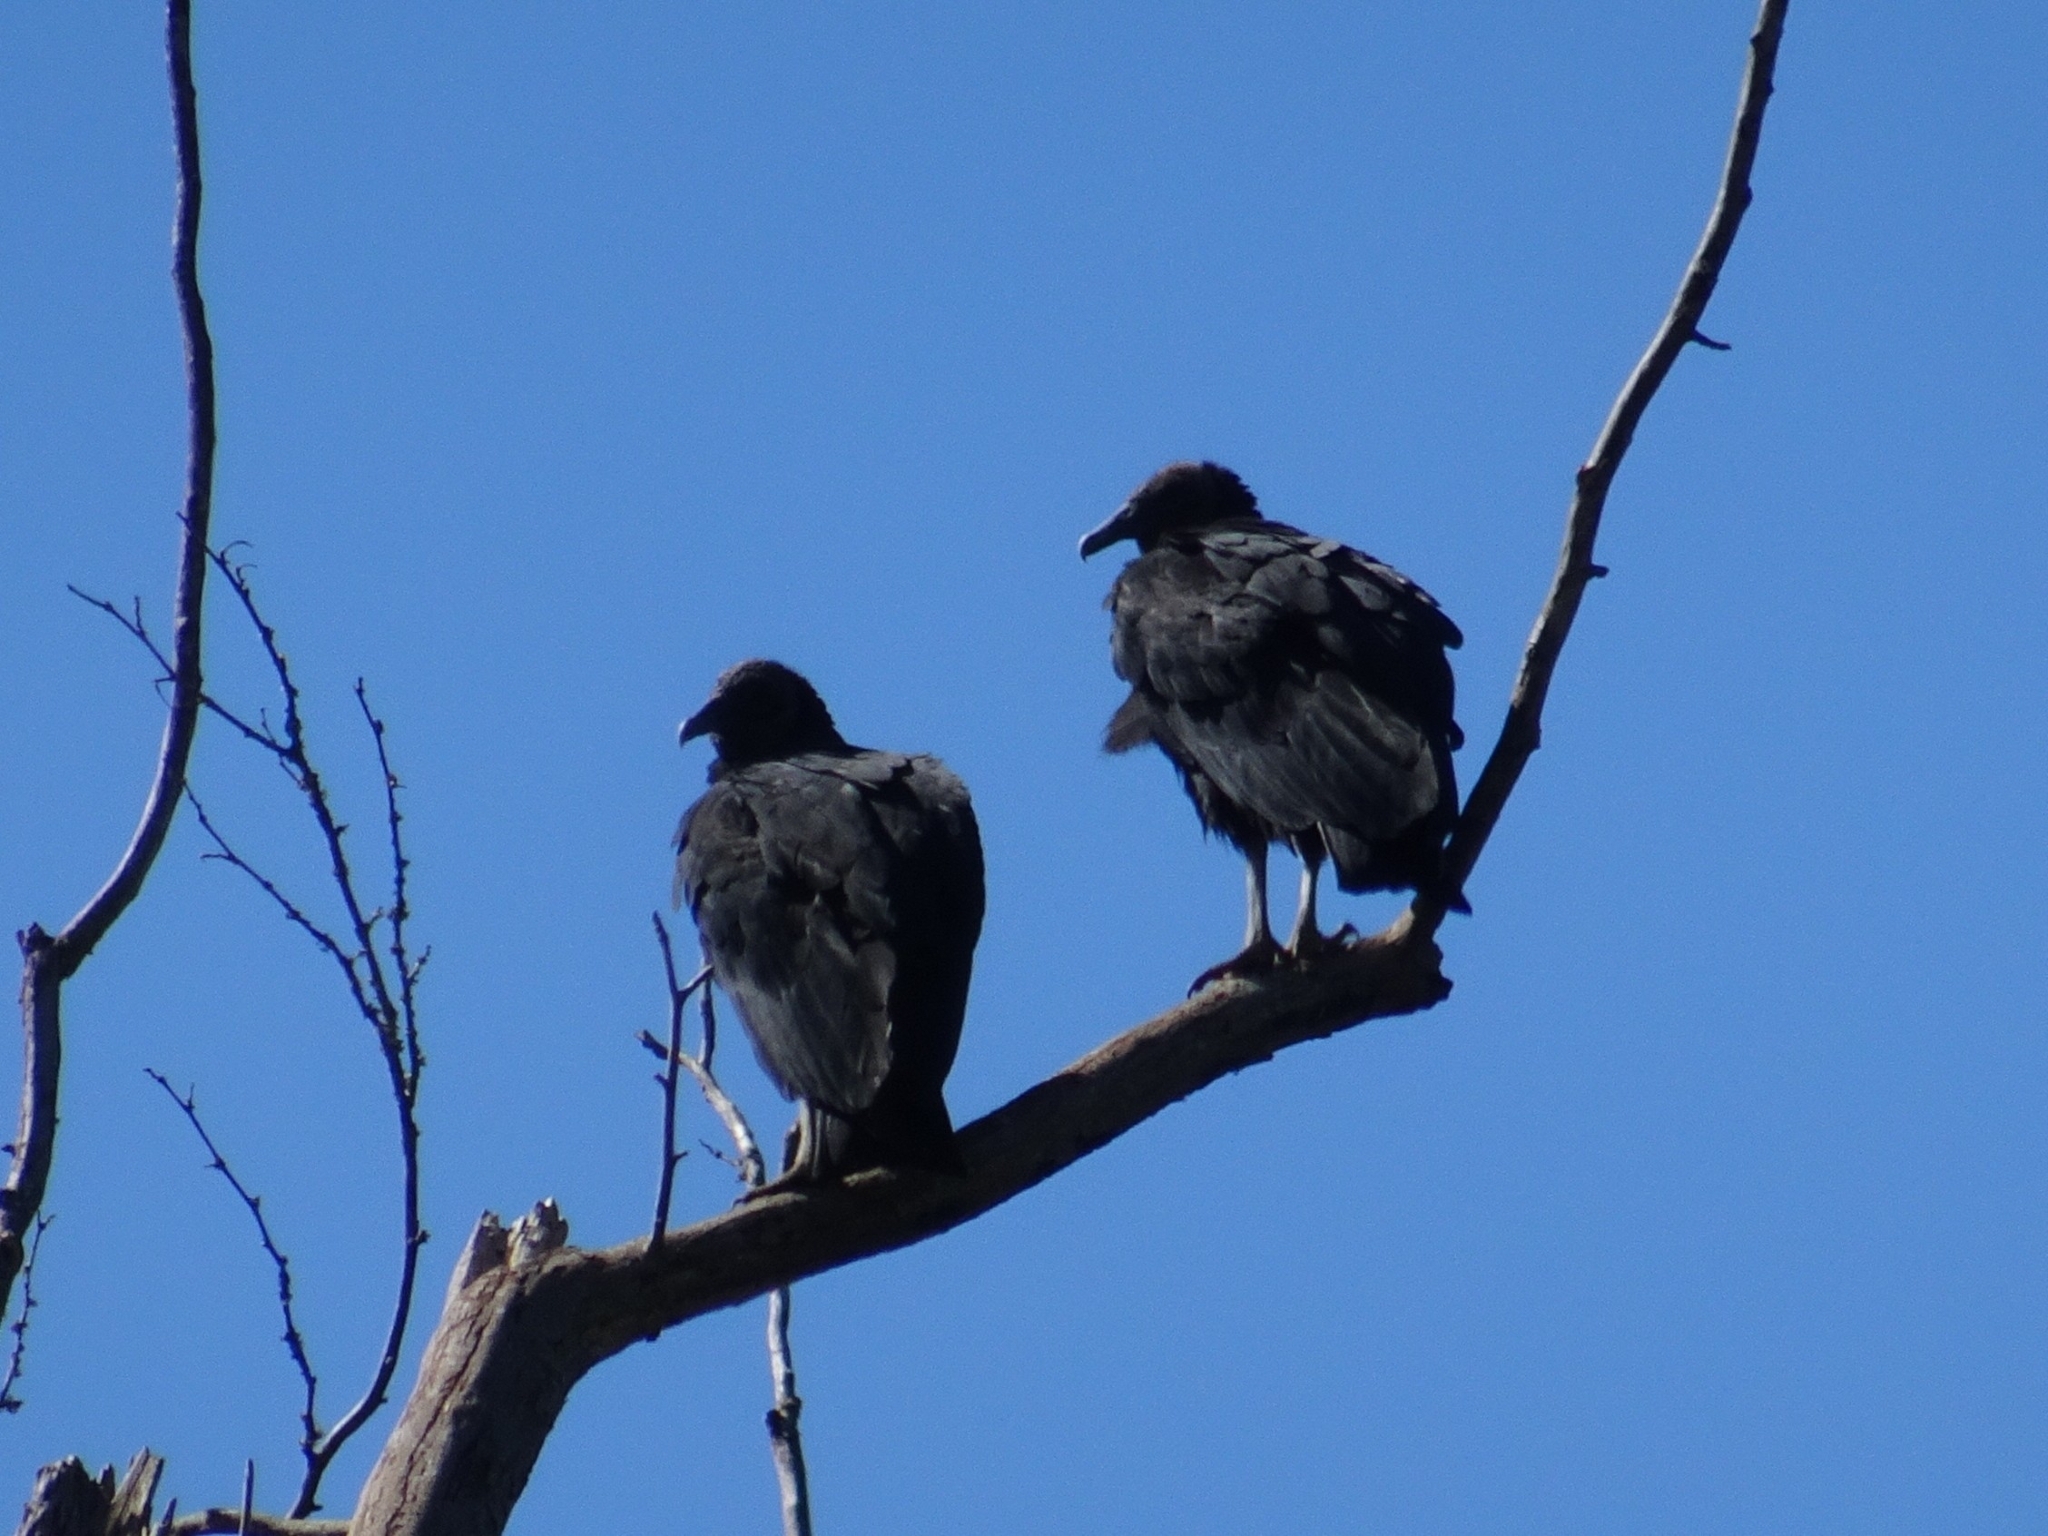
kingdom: Animalia
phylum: Chordata
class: Aves
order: Accipitriformes
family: Cathartidae
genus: Coragyps
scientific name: Coragyps atratus
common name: Black vulture
